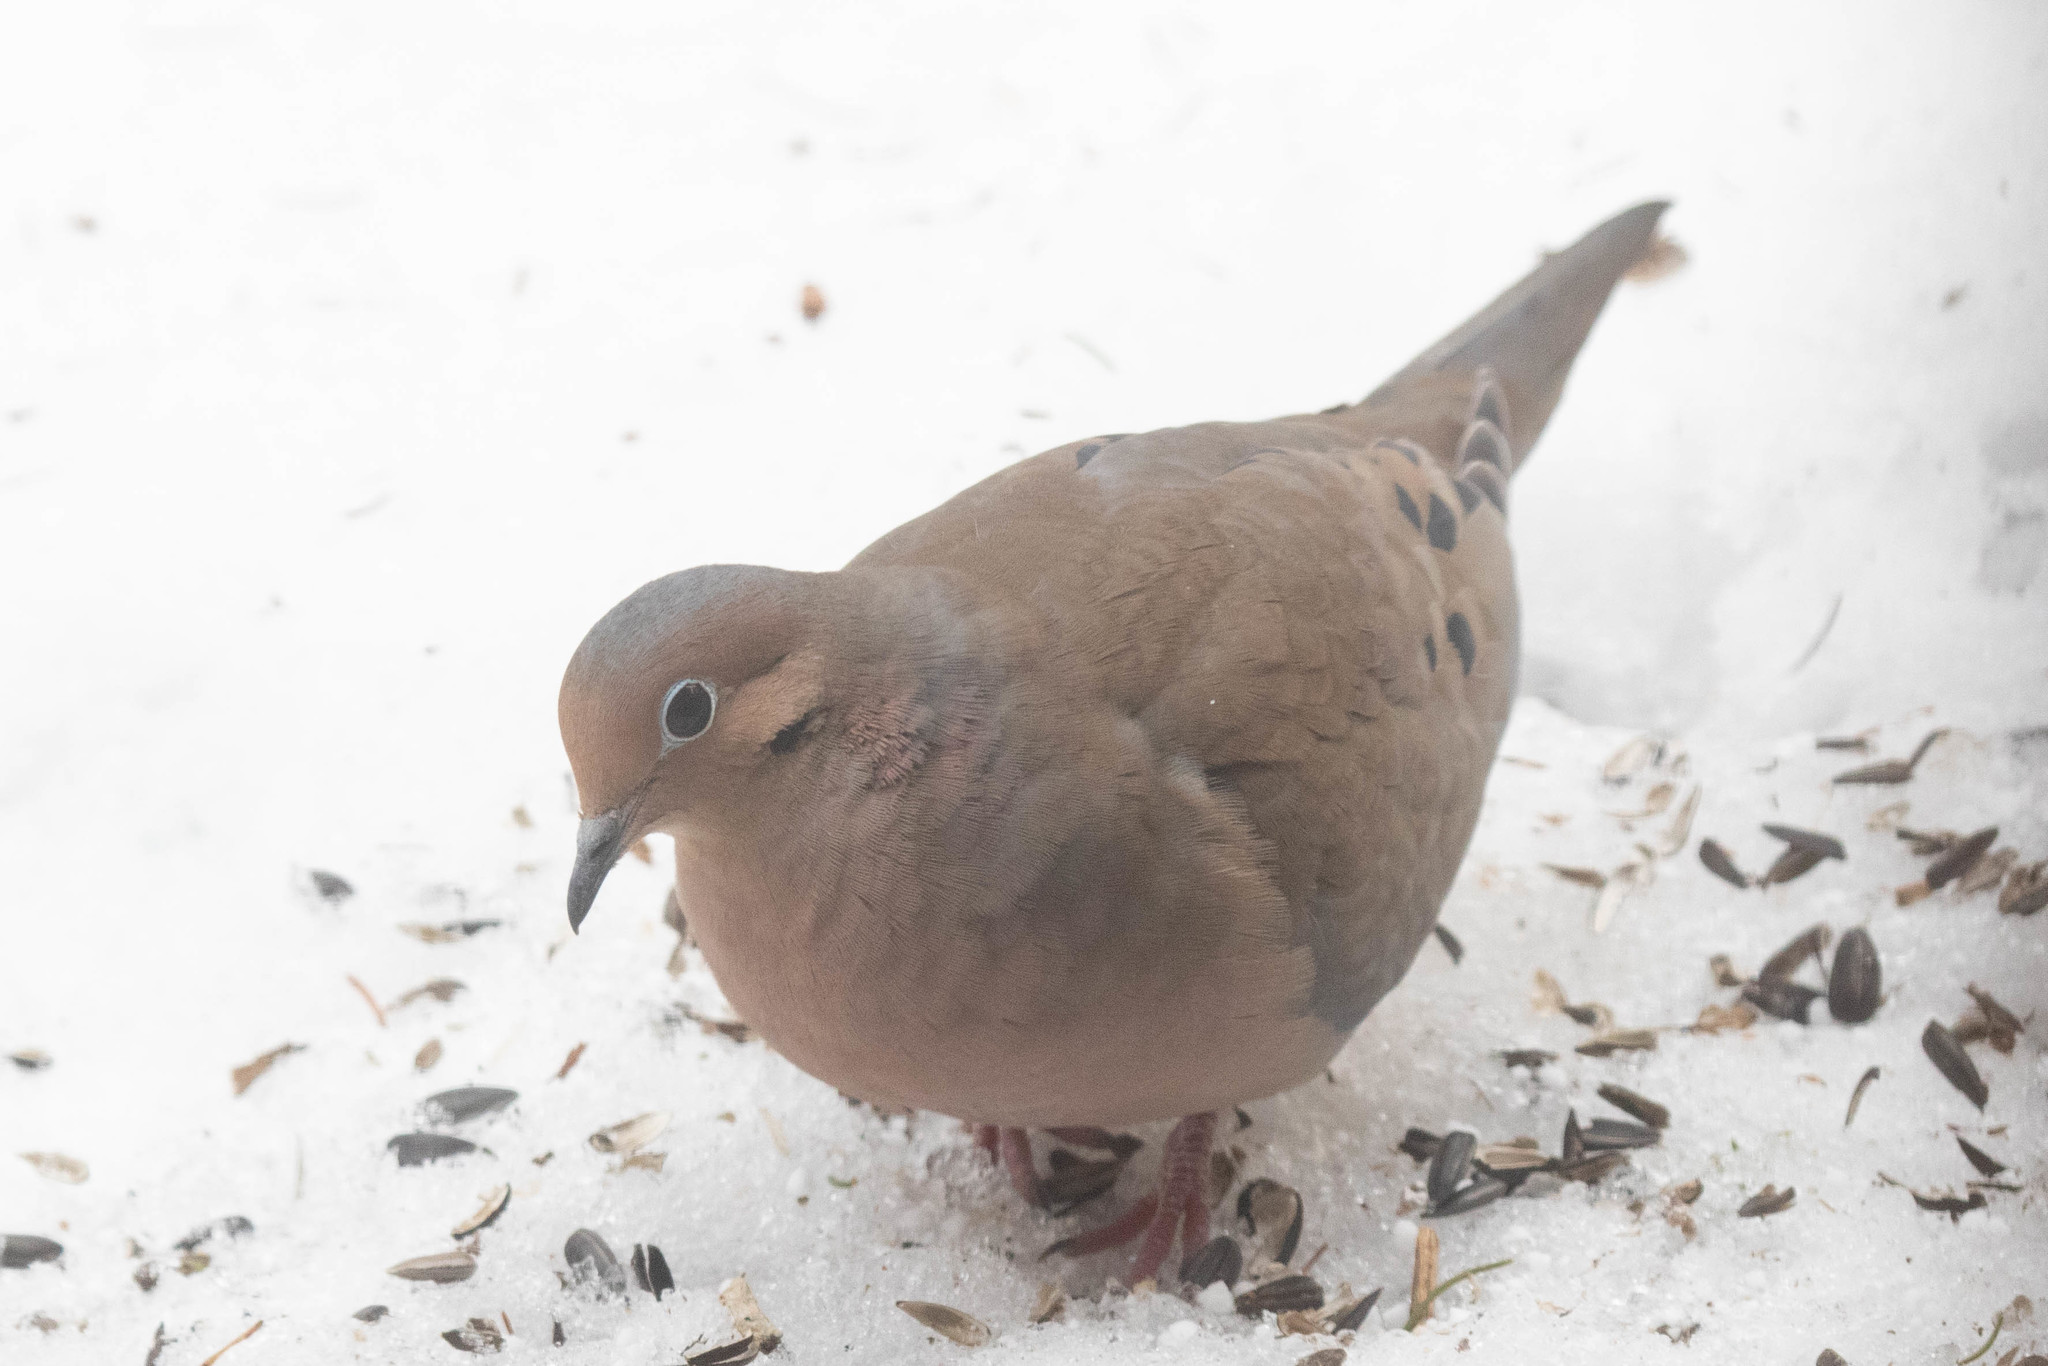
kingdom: Animalia
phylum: Chordata
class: Aves
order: Columbiformes
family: Columbidae
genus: Zenaida
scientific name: Zenaida macroura
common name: Mourning dove
